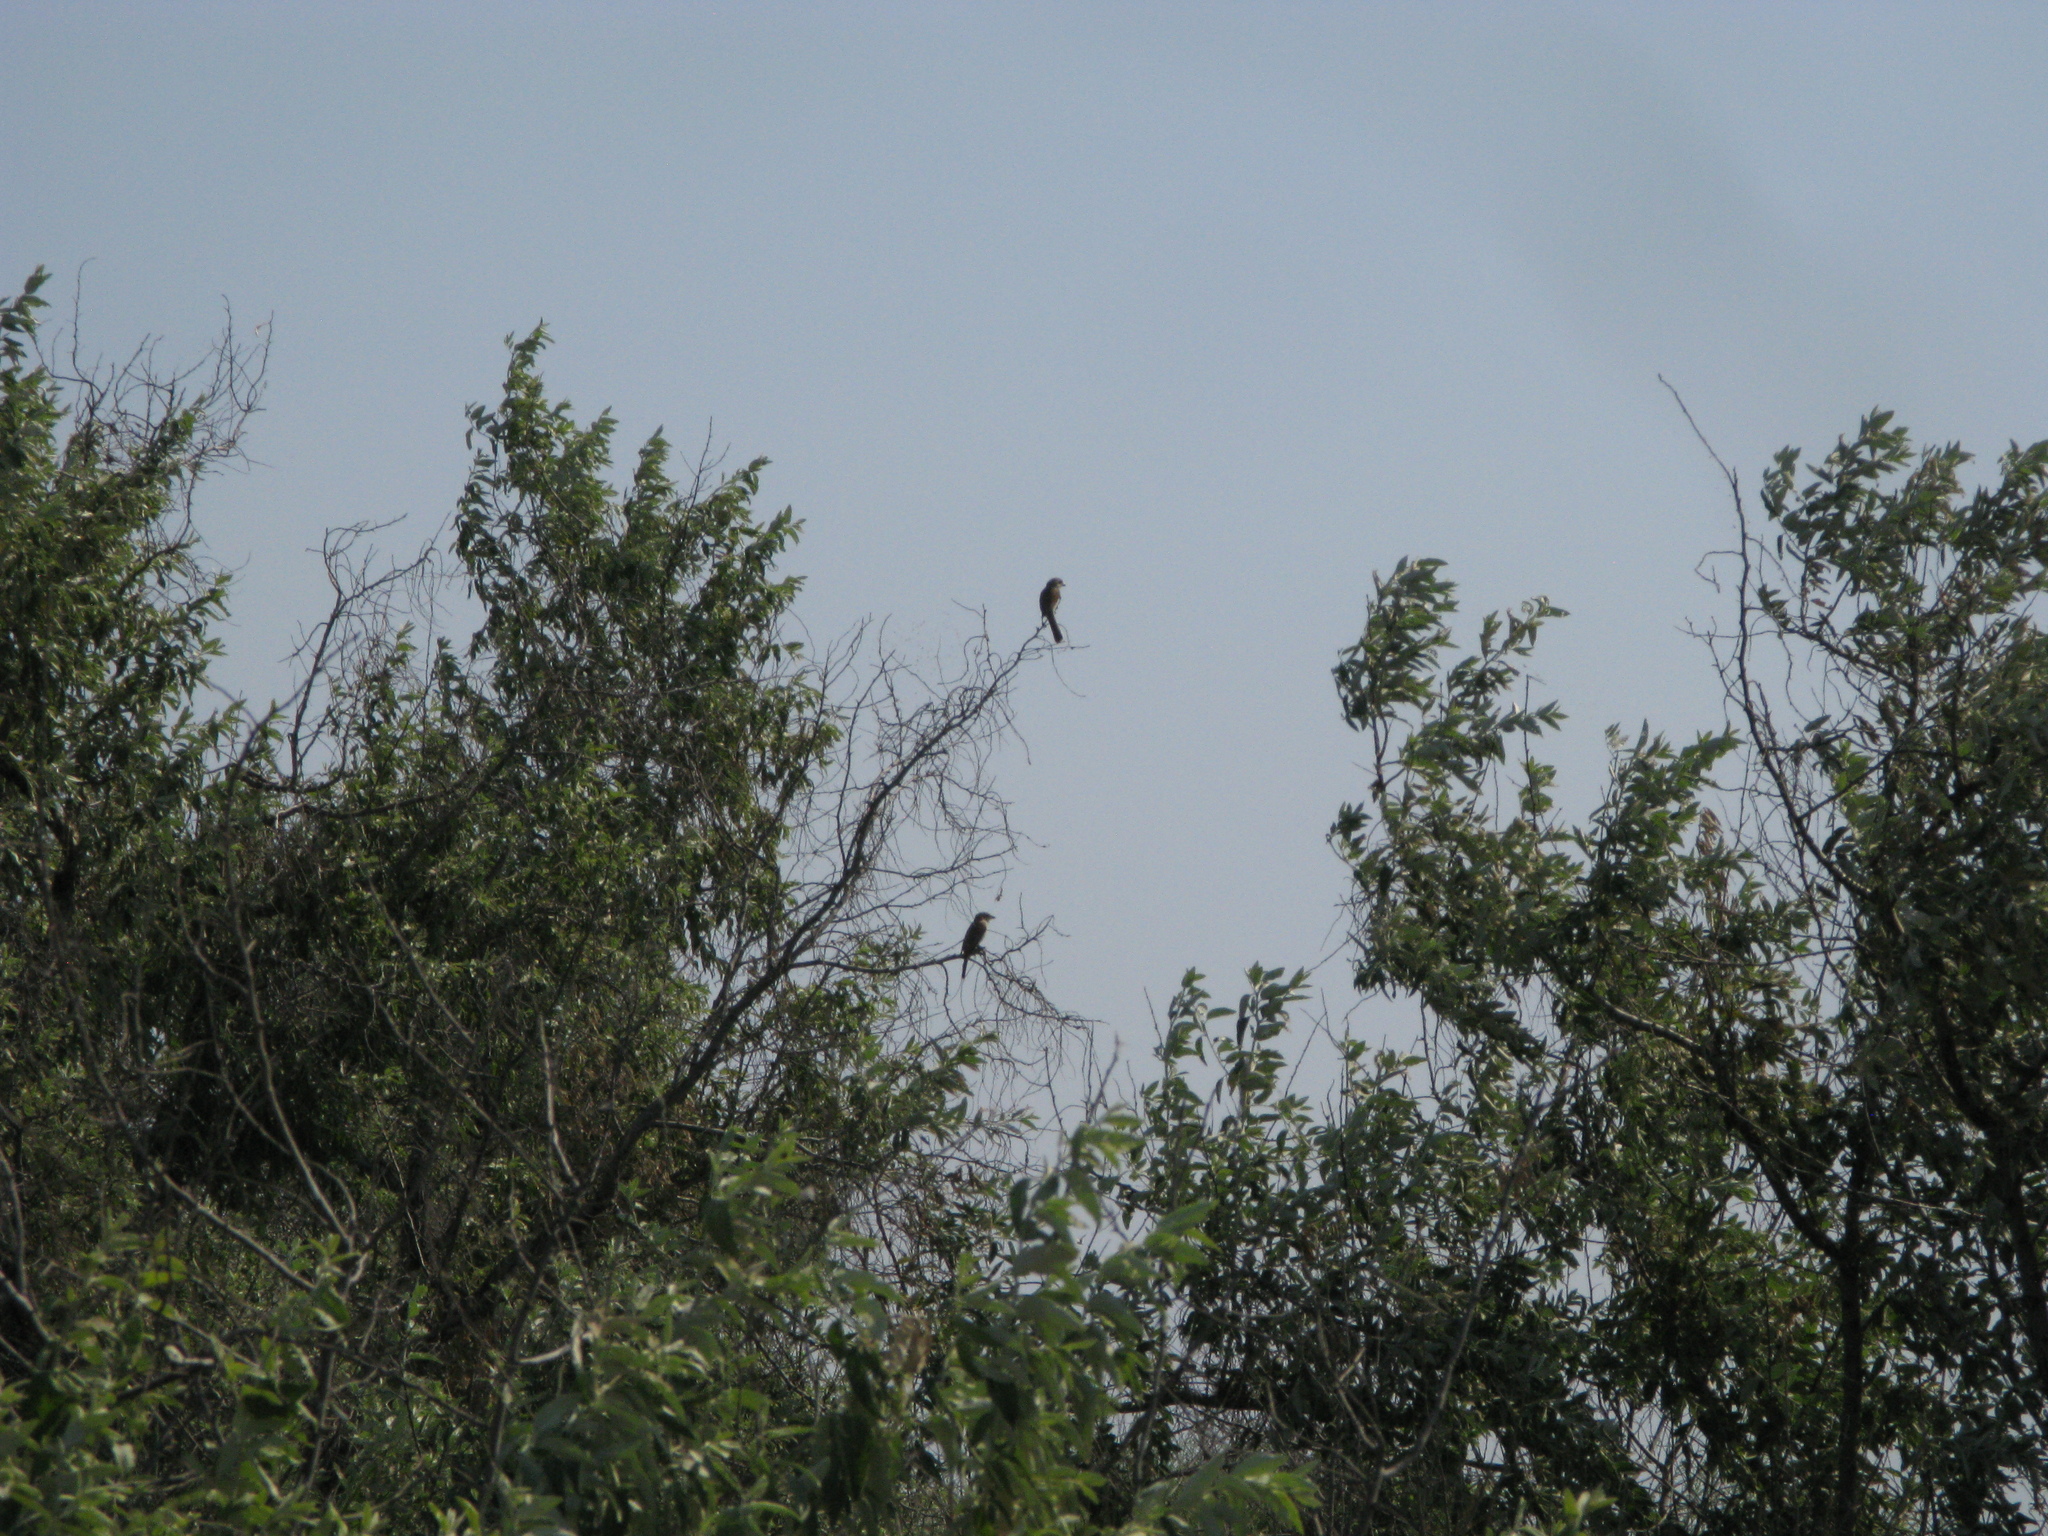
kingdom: Animalia
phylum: Chordata
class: Aves
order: Passeriformes
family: Laniidae
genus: Lanius
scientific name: Lanius collurio
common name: Red-backed shrike
